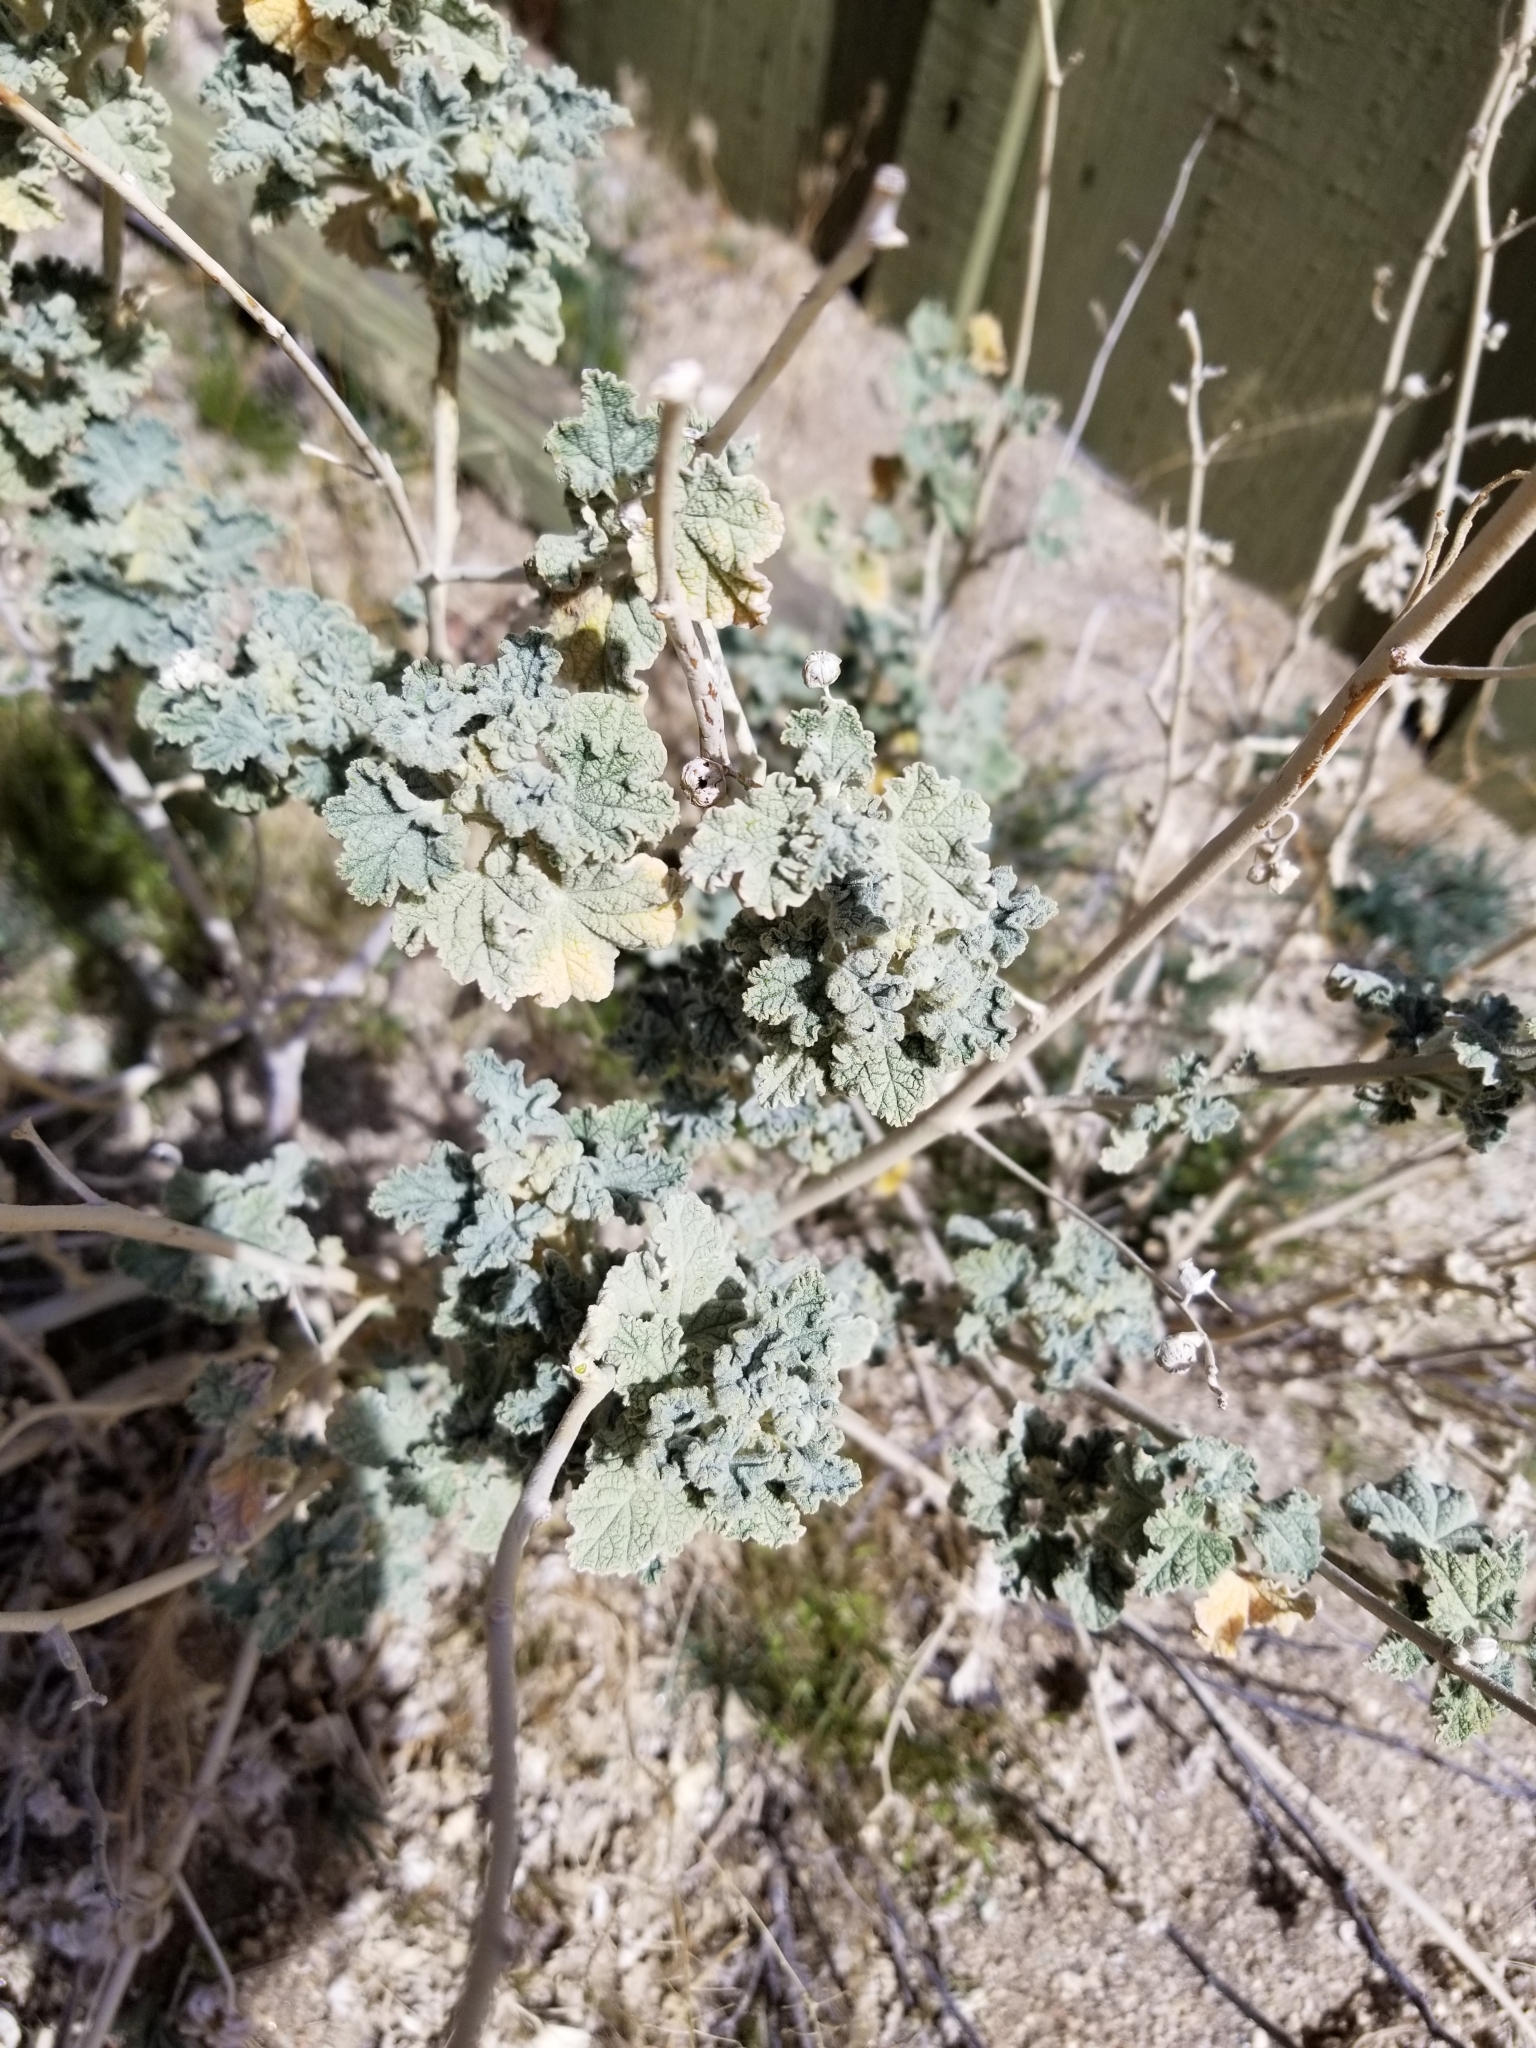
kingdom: Plantae
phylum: Tracheophyta
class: Magnoliopsida
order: Malvales
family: Malvaceae
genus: Sphaeralcea
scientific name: Sphaeralcea ambigua
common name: Apricot globe-mallow
